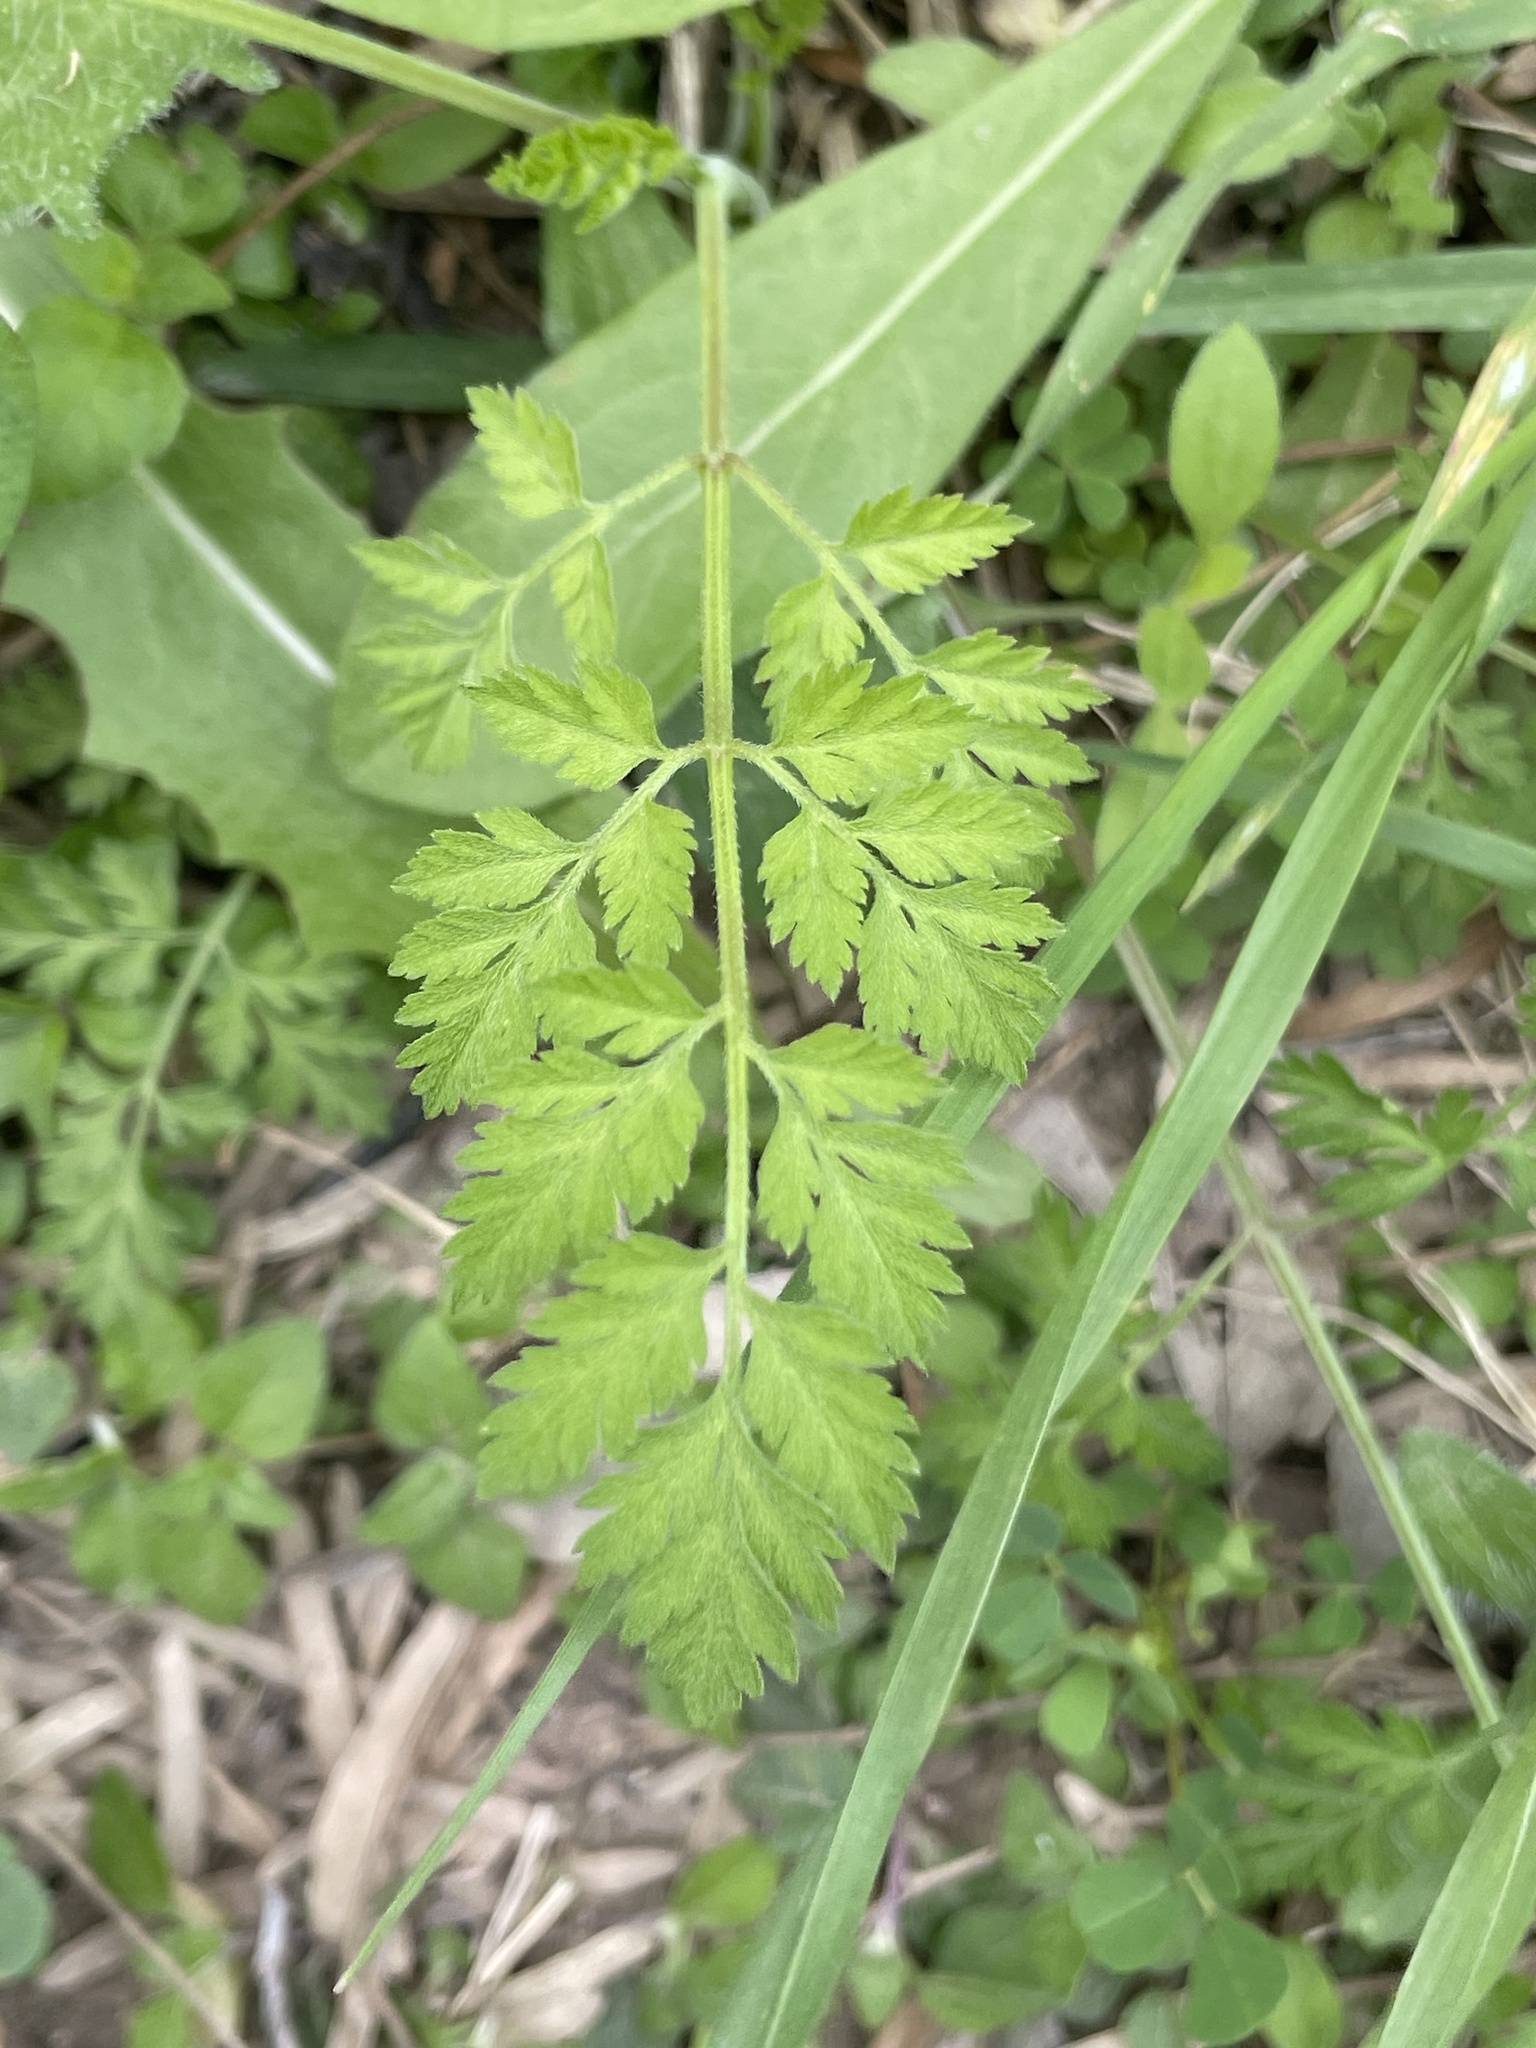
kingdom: Plantae
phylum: Tracheophyta
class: Magnoliopsida
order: Apiales
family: Apiaceae
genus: Torilis
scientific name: Torilis arvensis
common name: Spreading hedge-parsley
